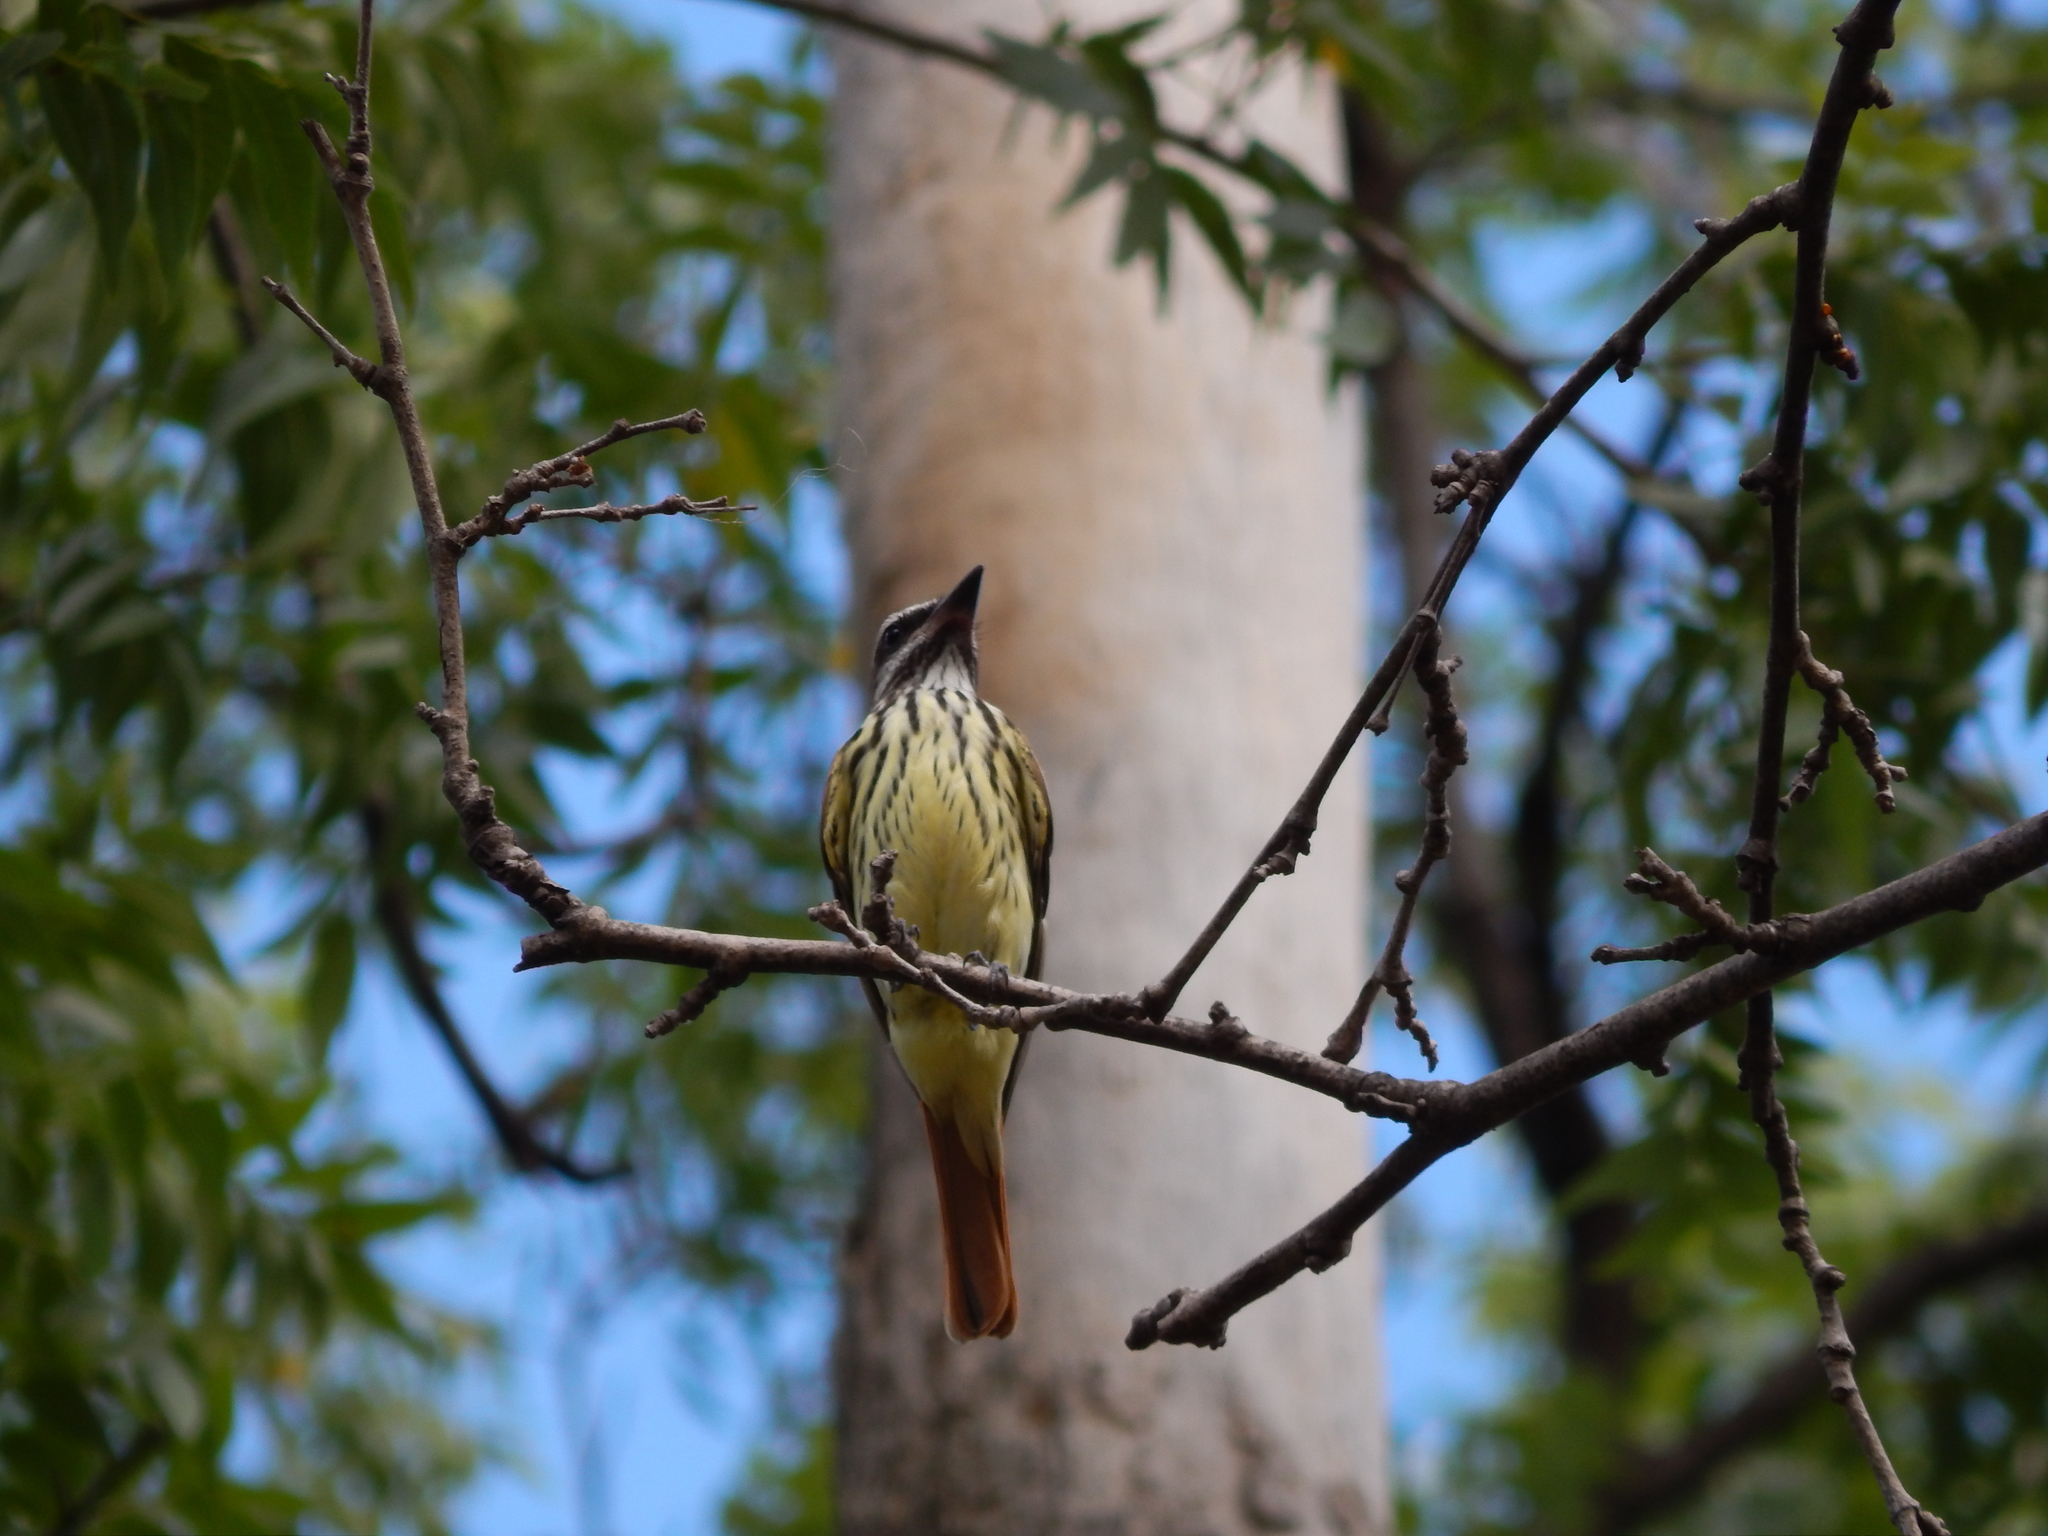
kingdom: Animalia
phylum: Chordata
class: Aves
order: Passeriformes
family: Tyrannidae
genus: Myiodynastes
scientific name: Myiodynastes luteiventris
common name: Sulphur-bellied flycatcher
